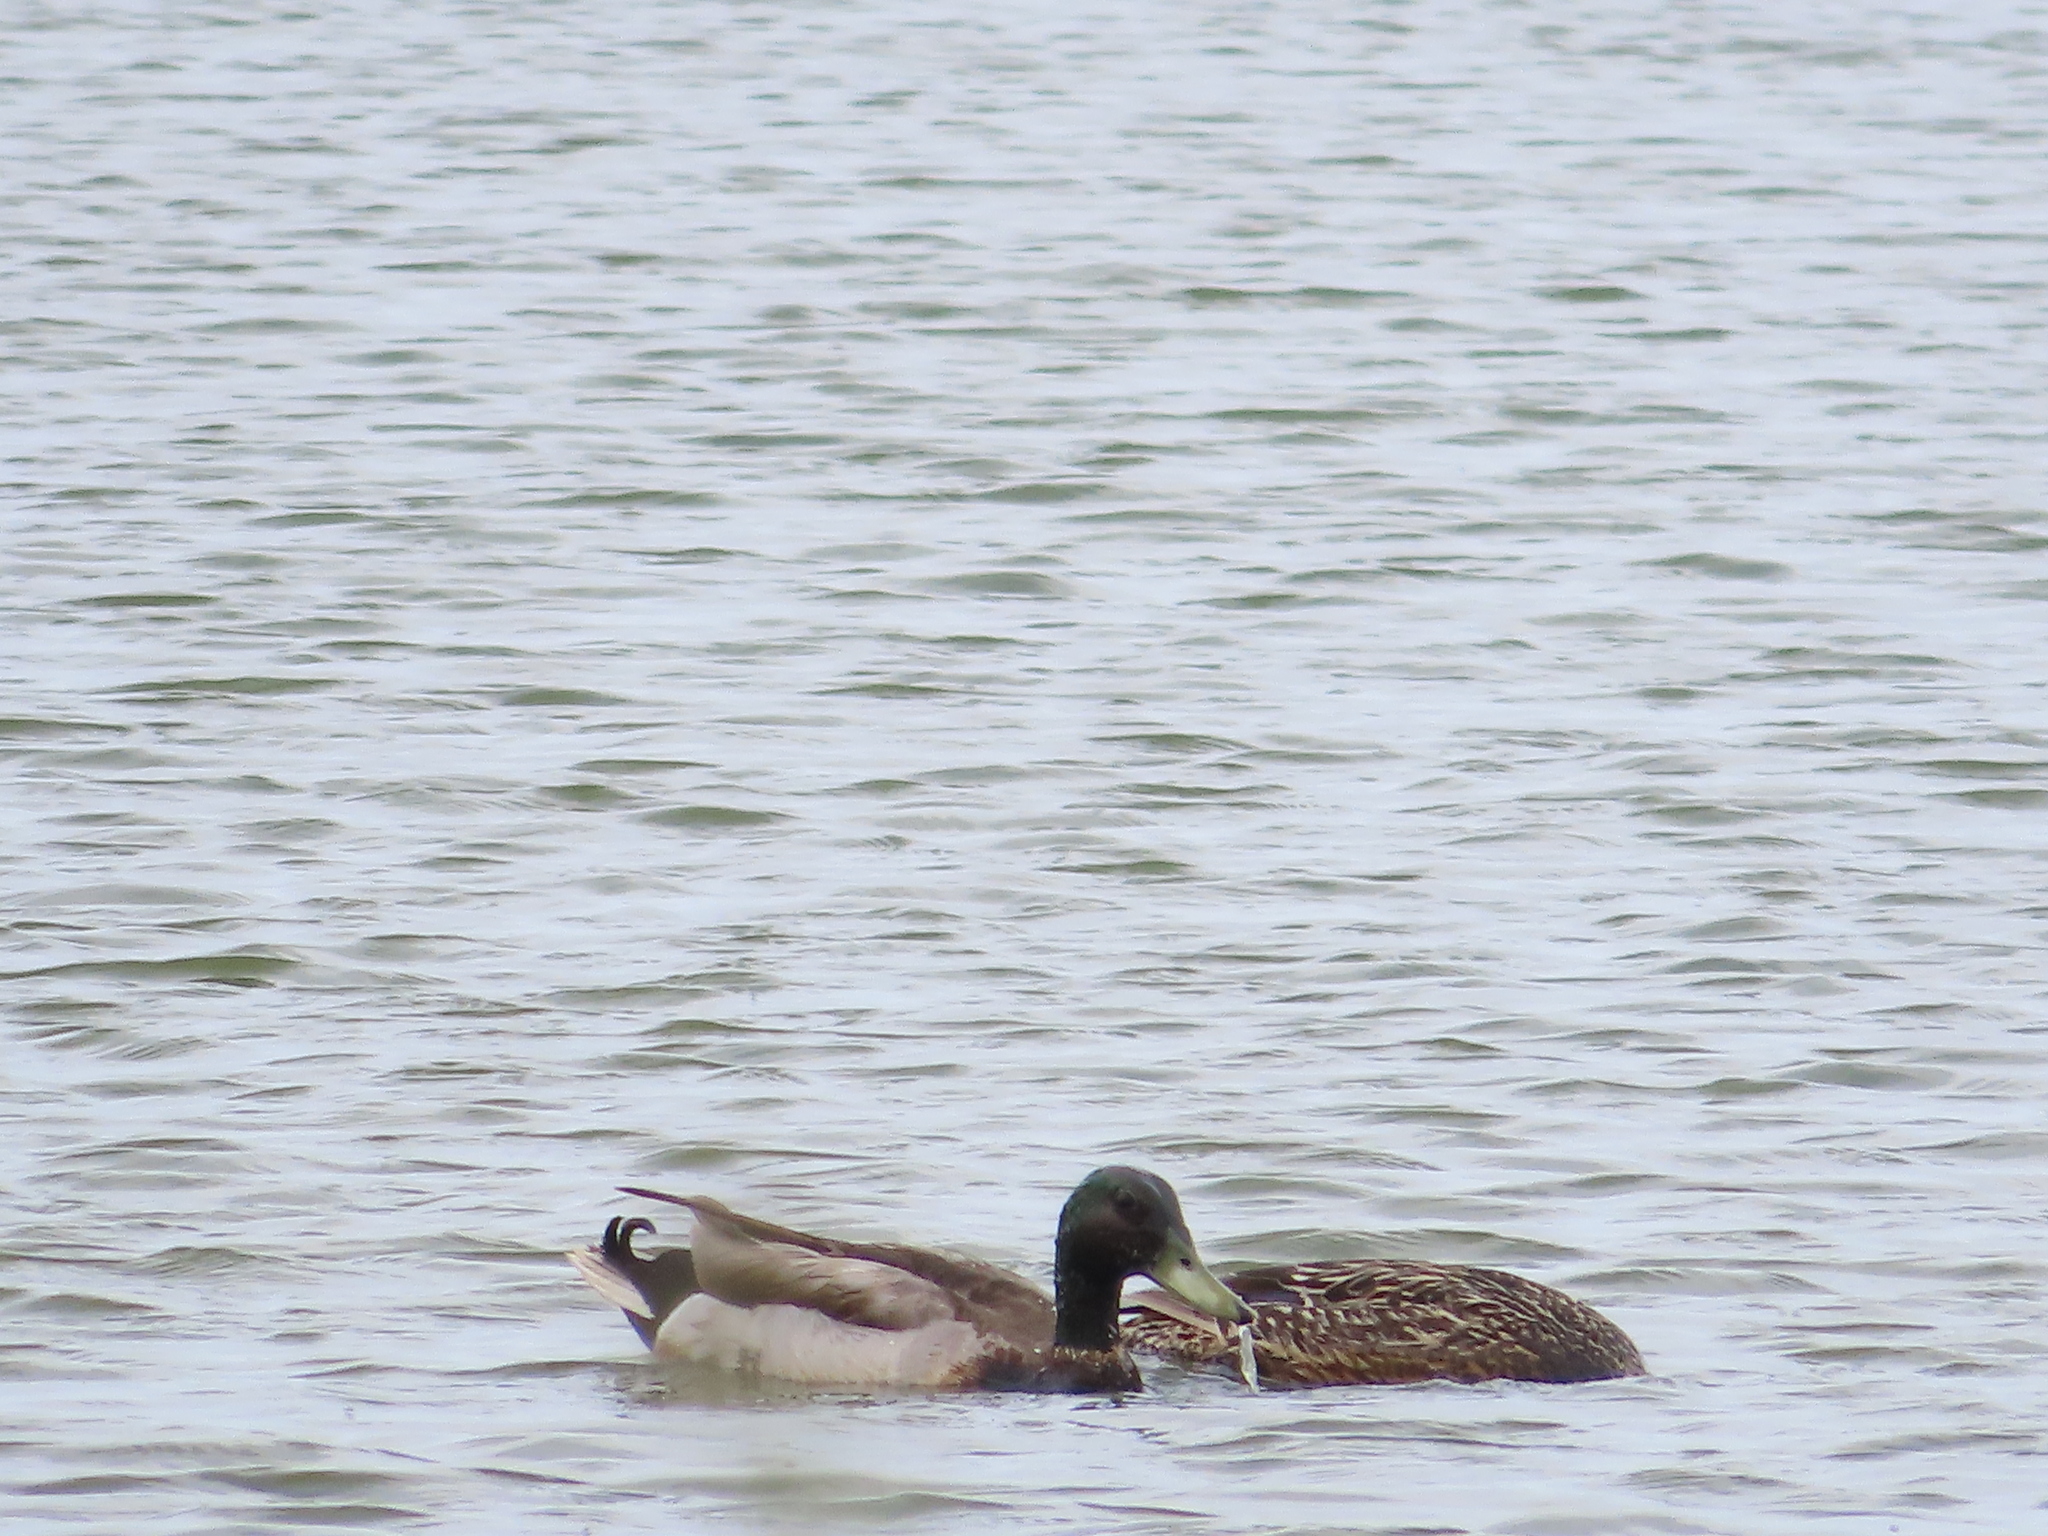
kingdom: Animalia
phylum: Chordata
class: Aves
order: Anseriformes
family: Anatidae
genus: Anas
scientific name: Anas platyrhynchos
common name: Mallard
